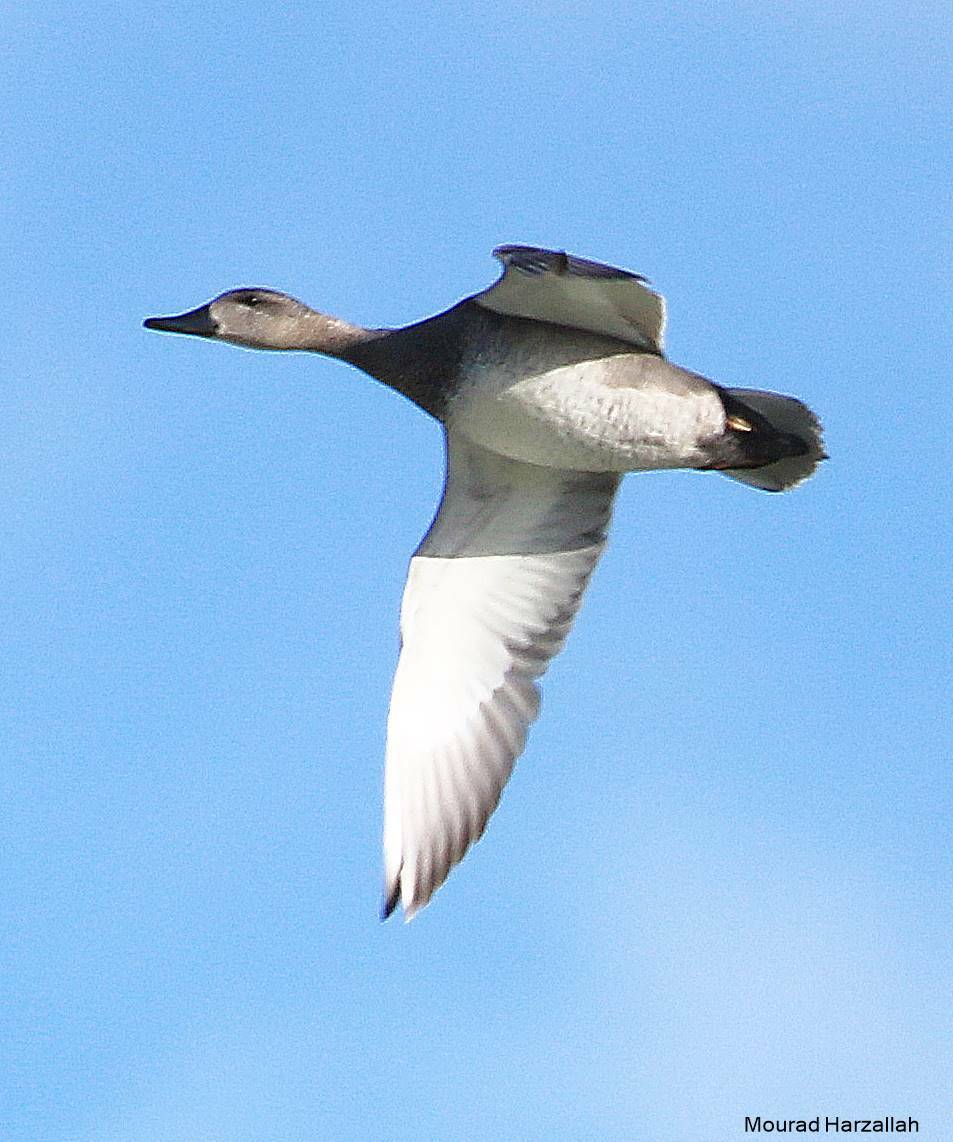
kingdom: Animalia
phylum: Chordata
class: Aves
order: Anseriformes
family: Anatidae
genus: Mareca
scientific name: Mareca penelope
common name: Eurasian wigeon
